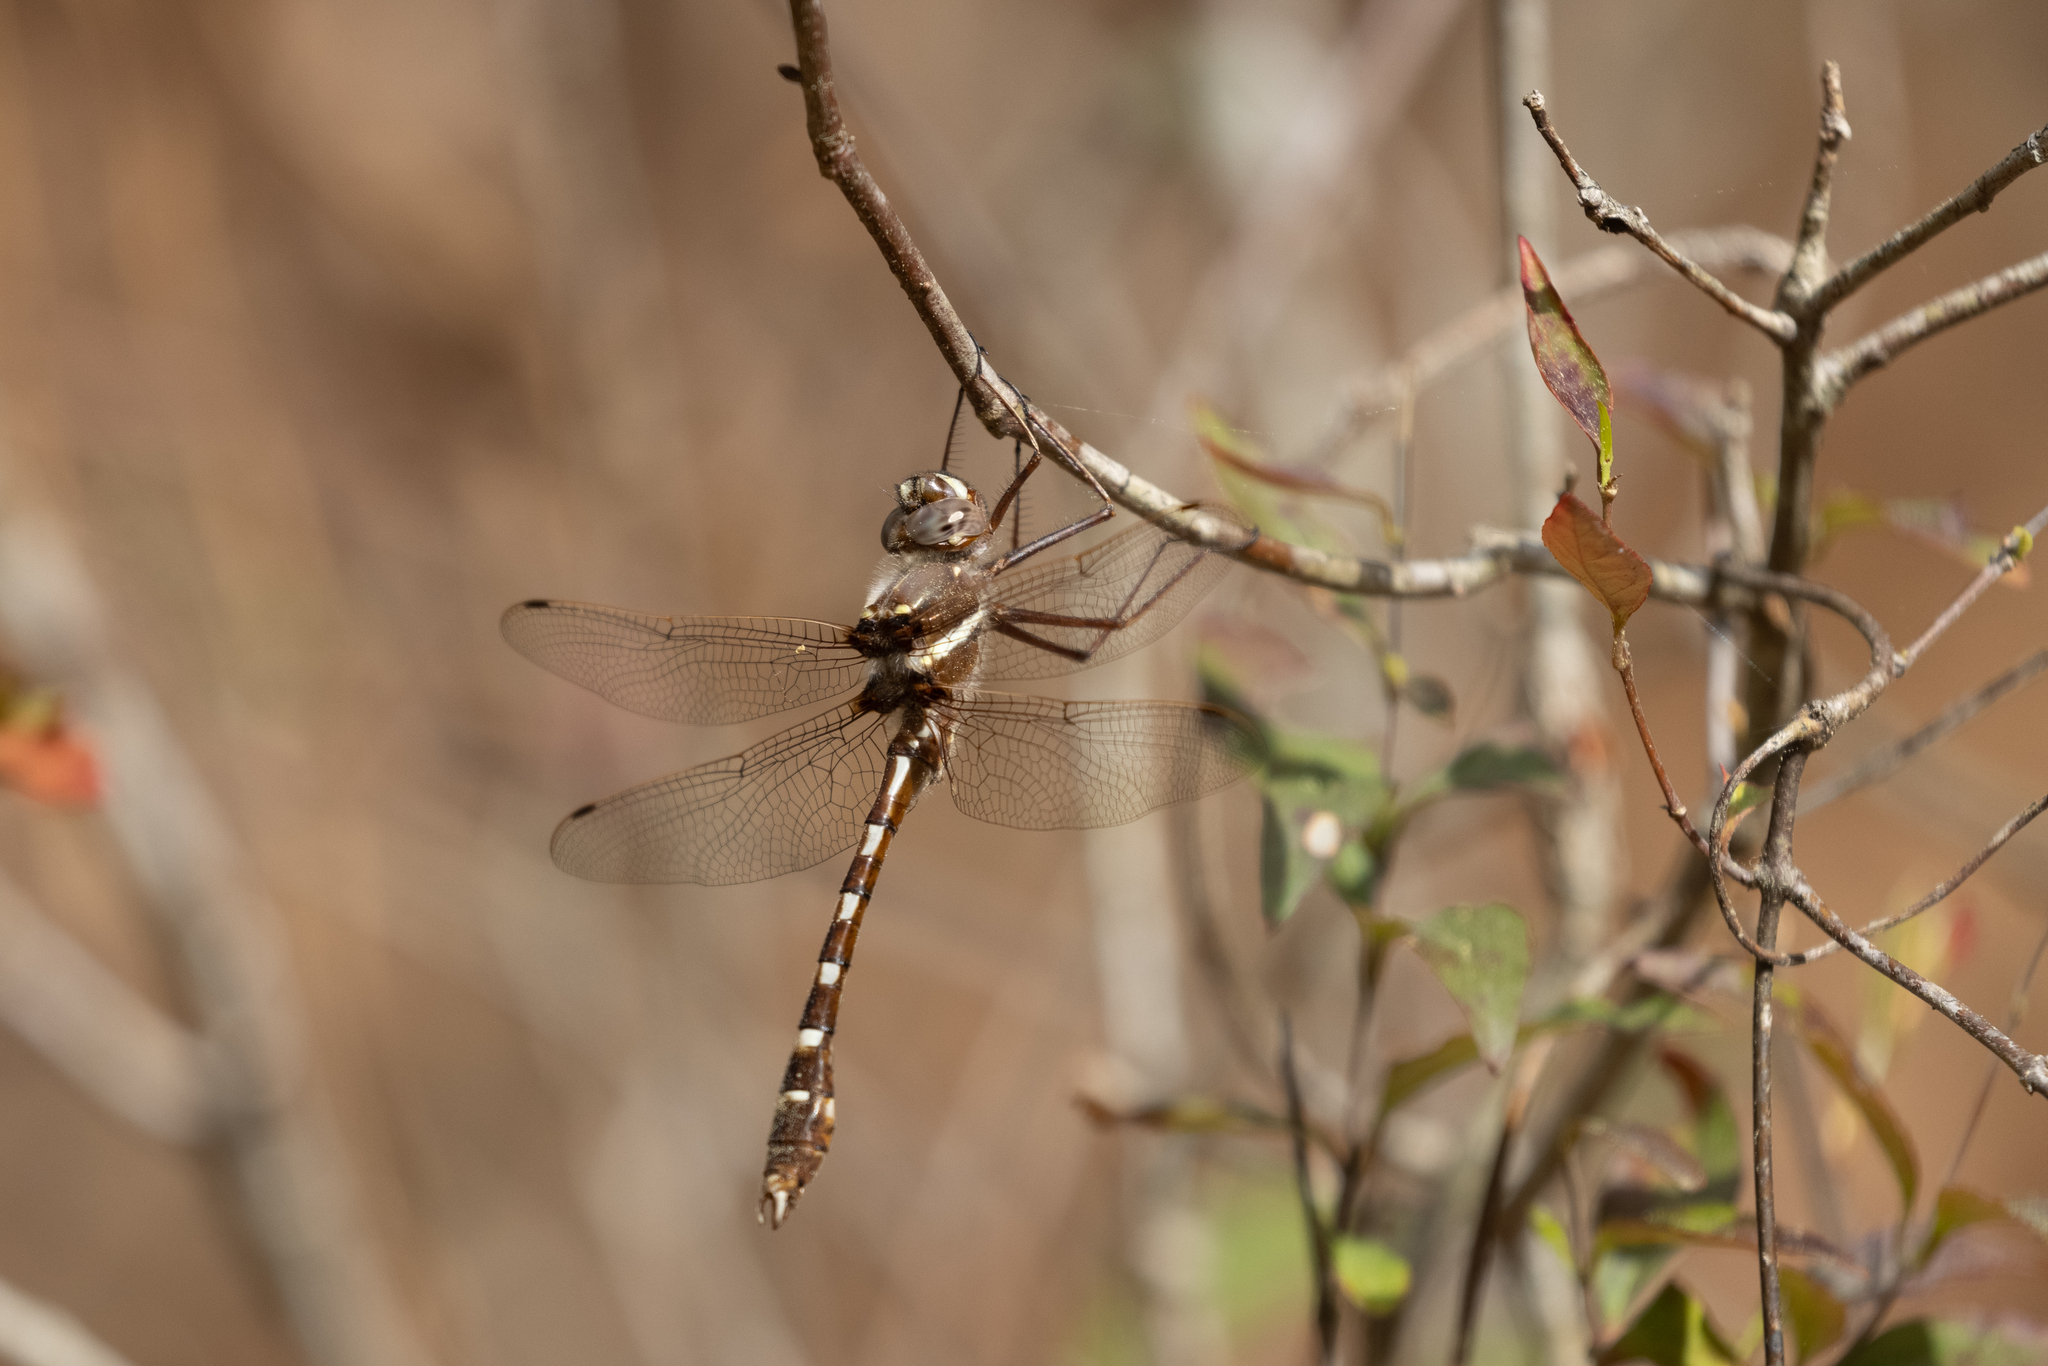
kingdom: Animalia
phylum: Arthropoda
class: Insecta
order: Odonata
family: Macromiidae
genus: Didymops
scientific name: Didymops transversa
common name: Stream cruiser
